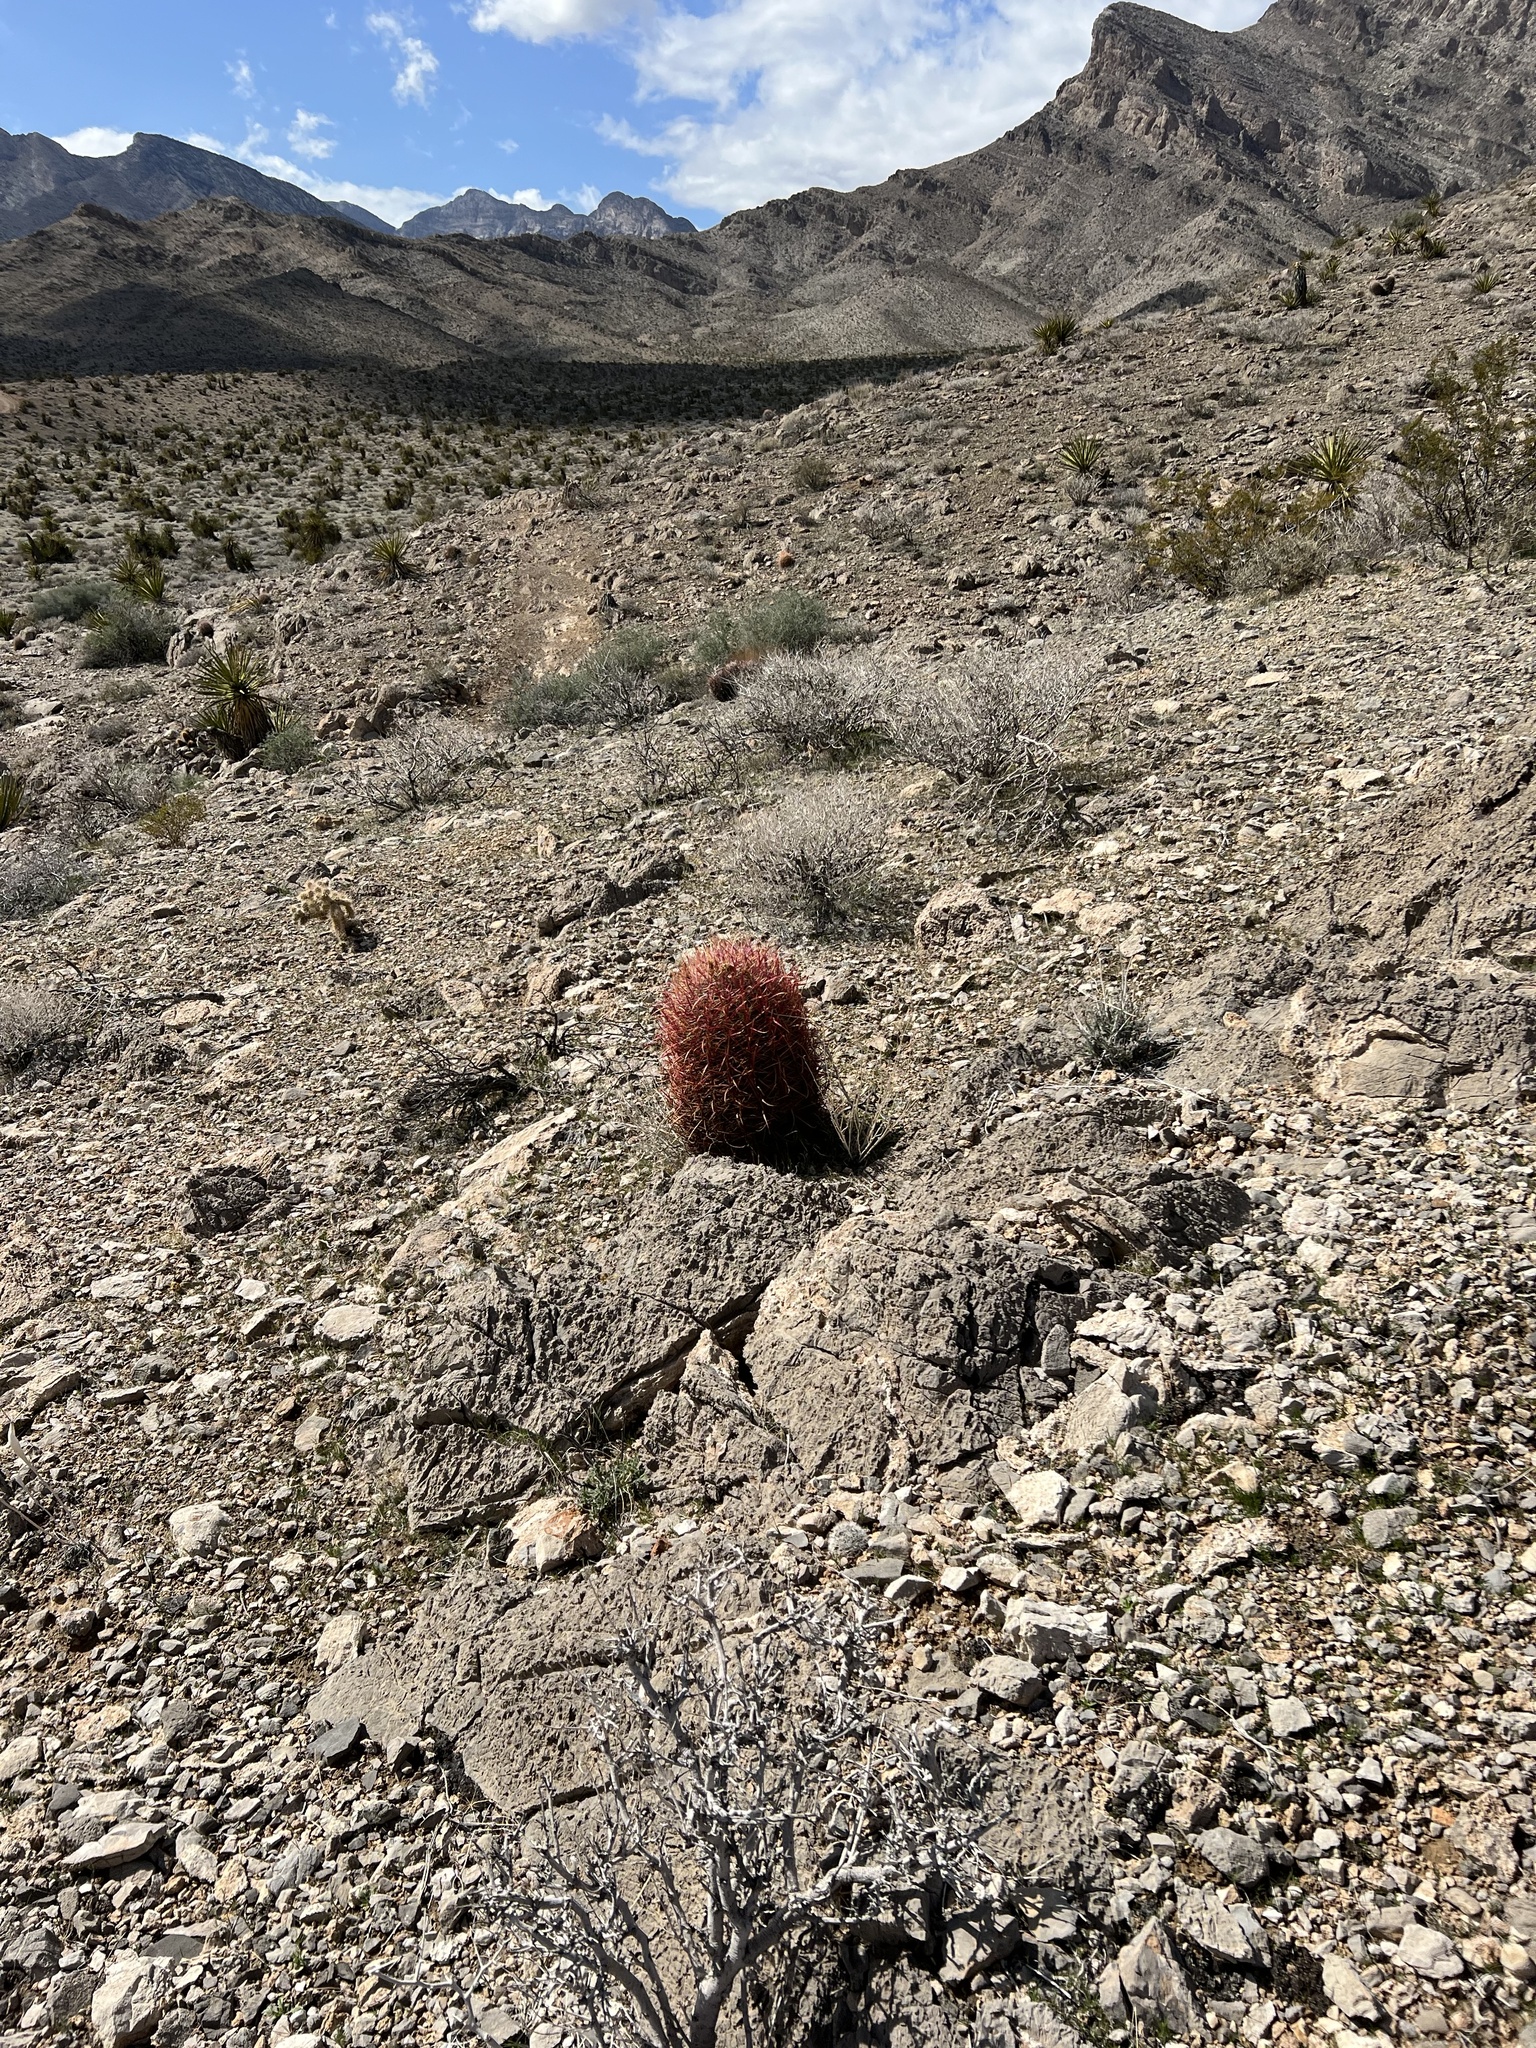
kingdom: Plantae
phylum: Tracheophyta
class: Magnoliopsida
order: Caryophyllales
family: Cactaceae
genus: Ferocactus
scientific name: Ferocactus cylindraceus
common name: California barrel cactus
